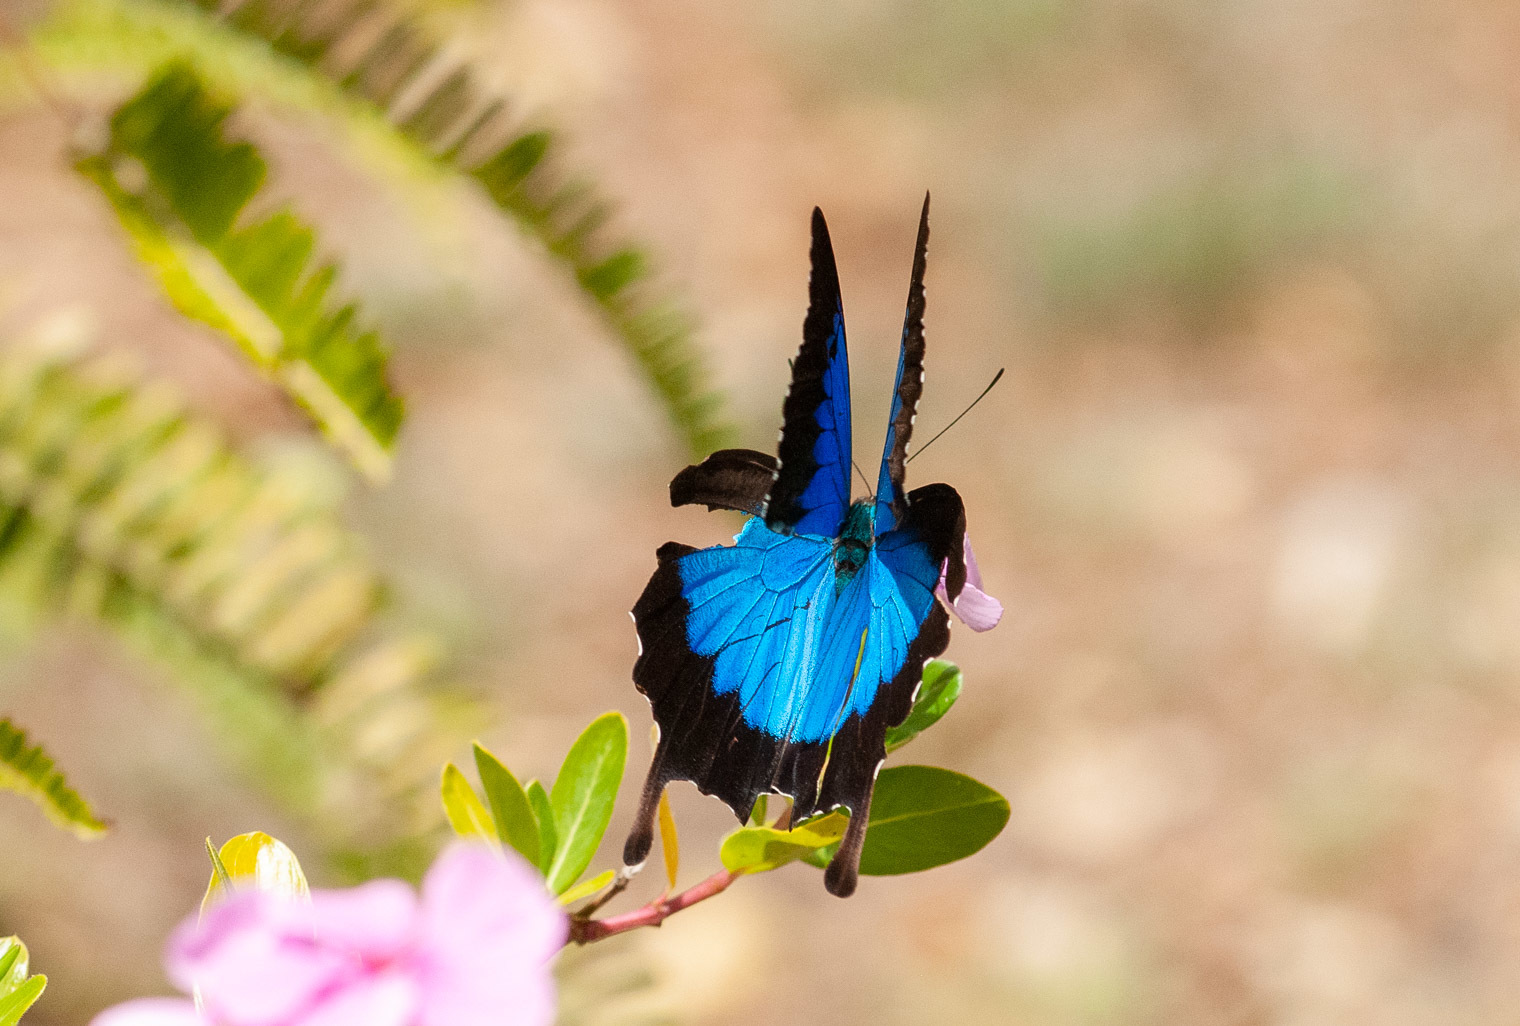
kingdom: Animalia
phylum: Arthropoda
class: Insecta
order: Lepidoptera
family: Papilionidae
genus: Papilio
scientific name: Papilio ulysses
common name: Blue emperor
